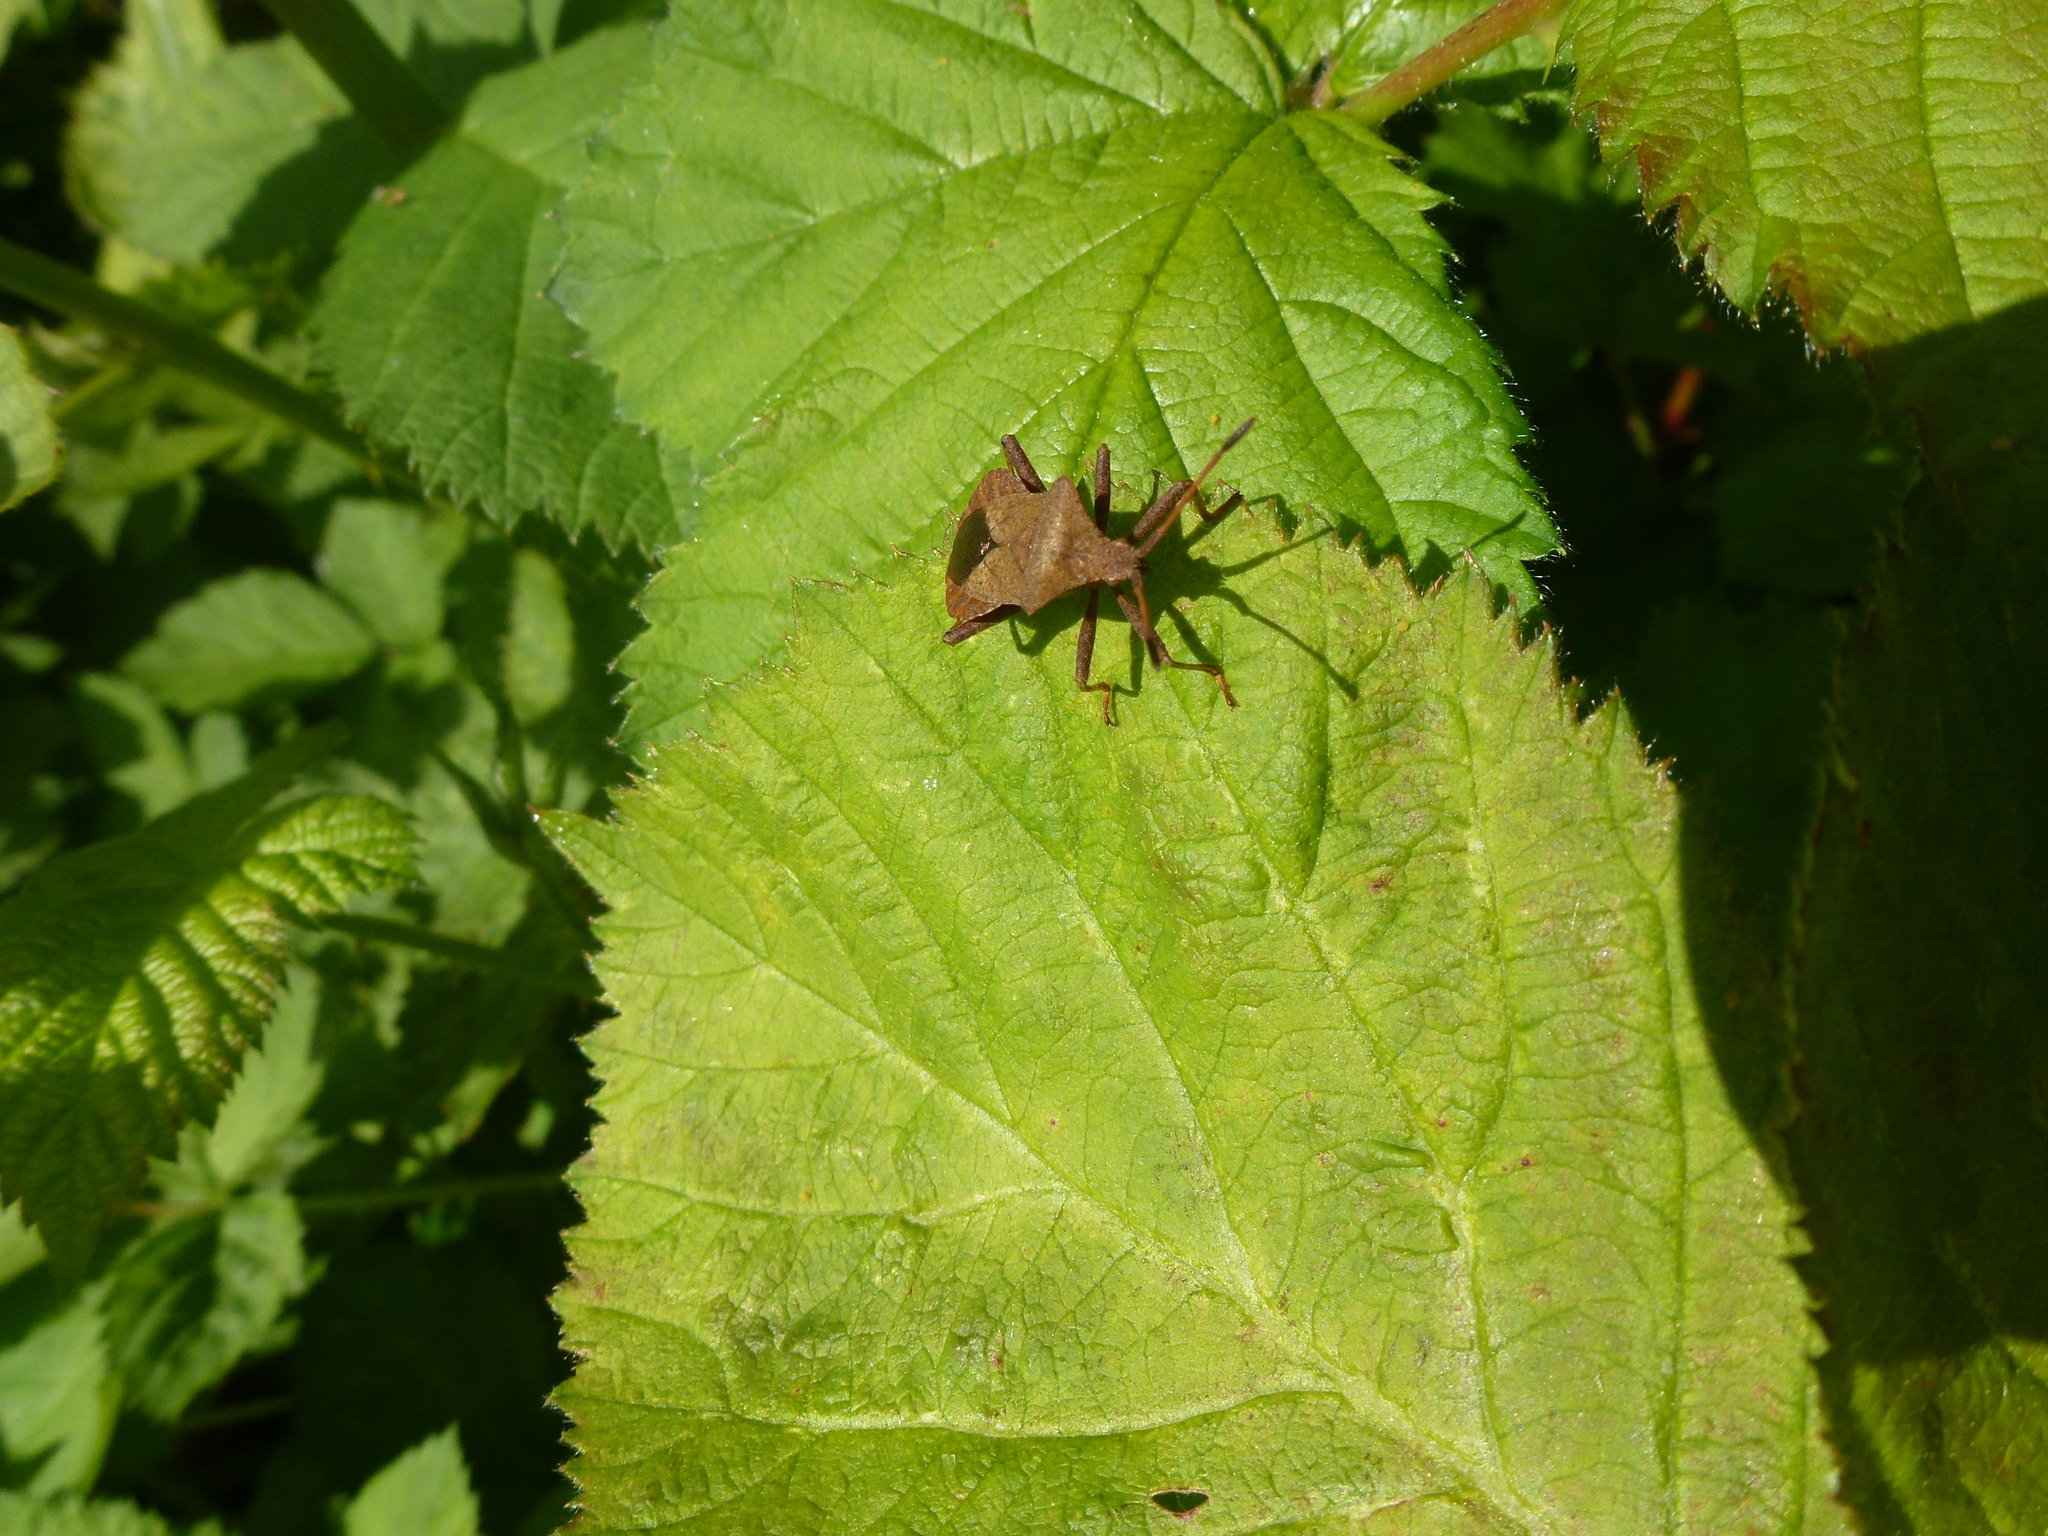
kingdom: Animalia
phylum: Arthropoda
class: Insecta
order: Hemiptera
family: Coreidae
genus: Coreus
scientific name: Coreus marginatus
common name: Dock bug
